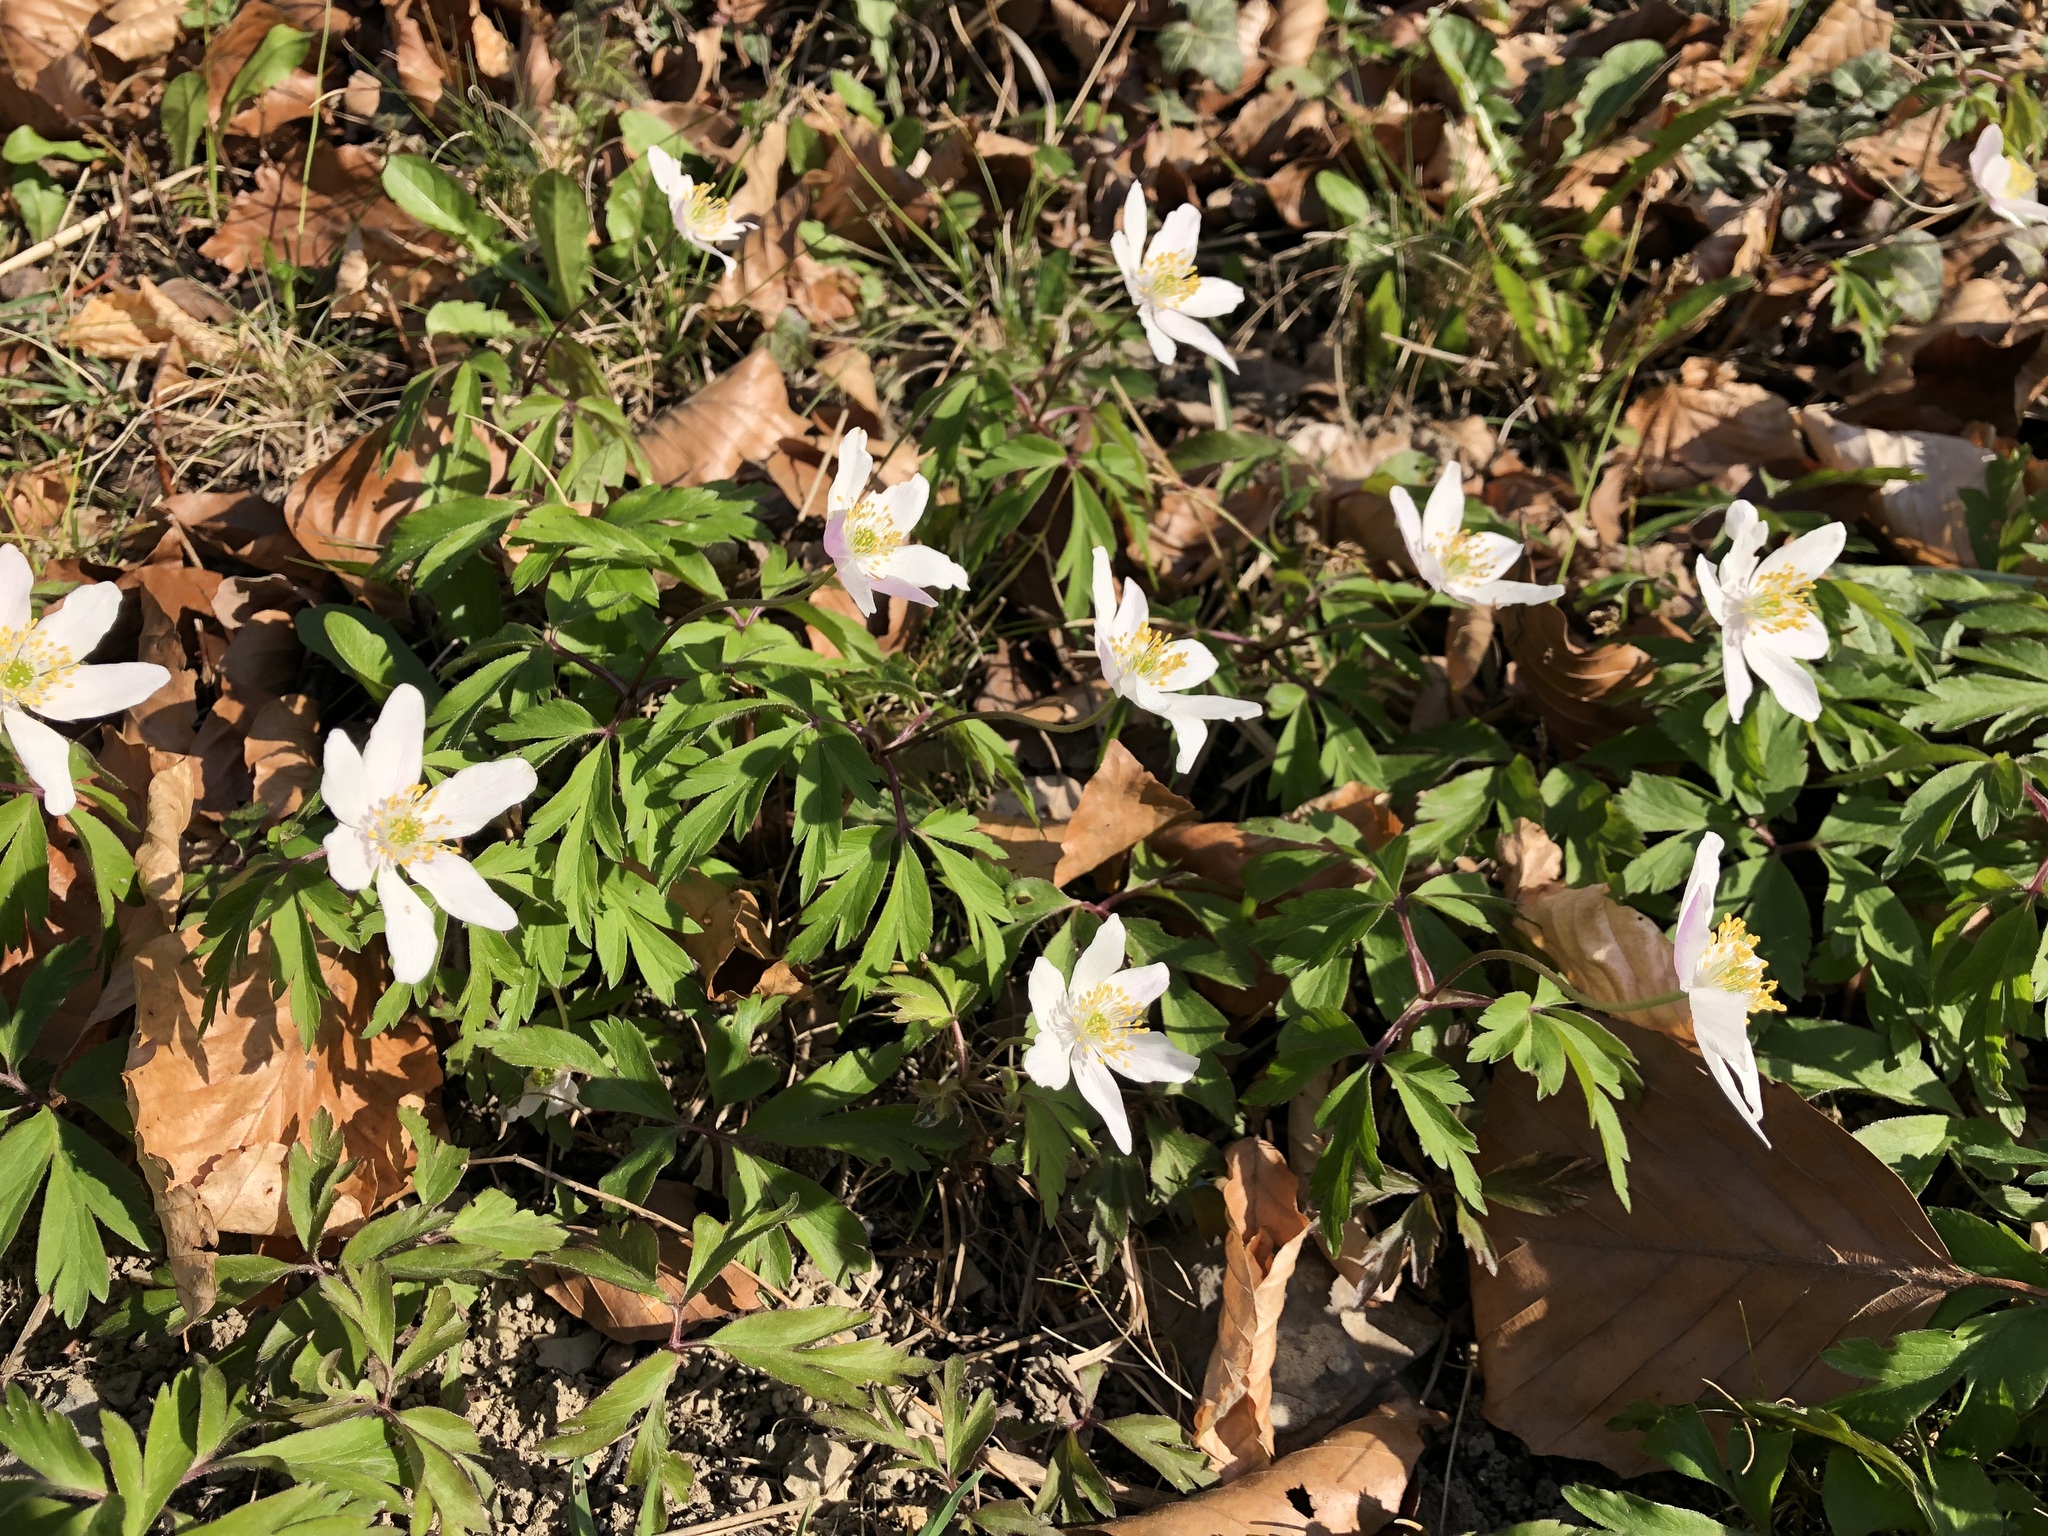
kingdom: Plantae
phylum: Tracheophyta
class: Magnoliopsida
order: Ranunculales
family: Ranunculaceae
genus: Anemone
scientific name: Anemone nemorosa
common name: Wood anemone
